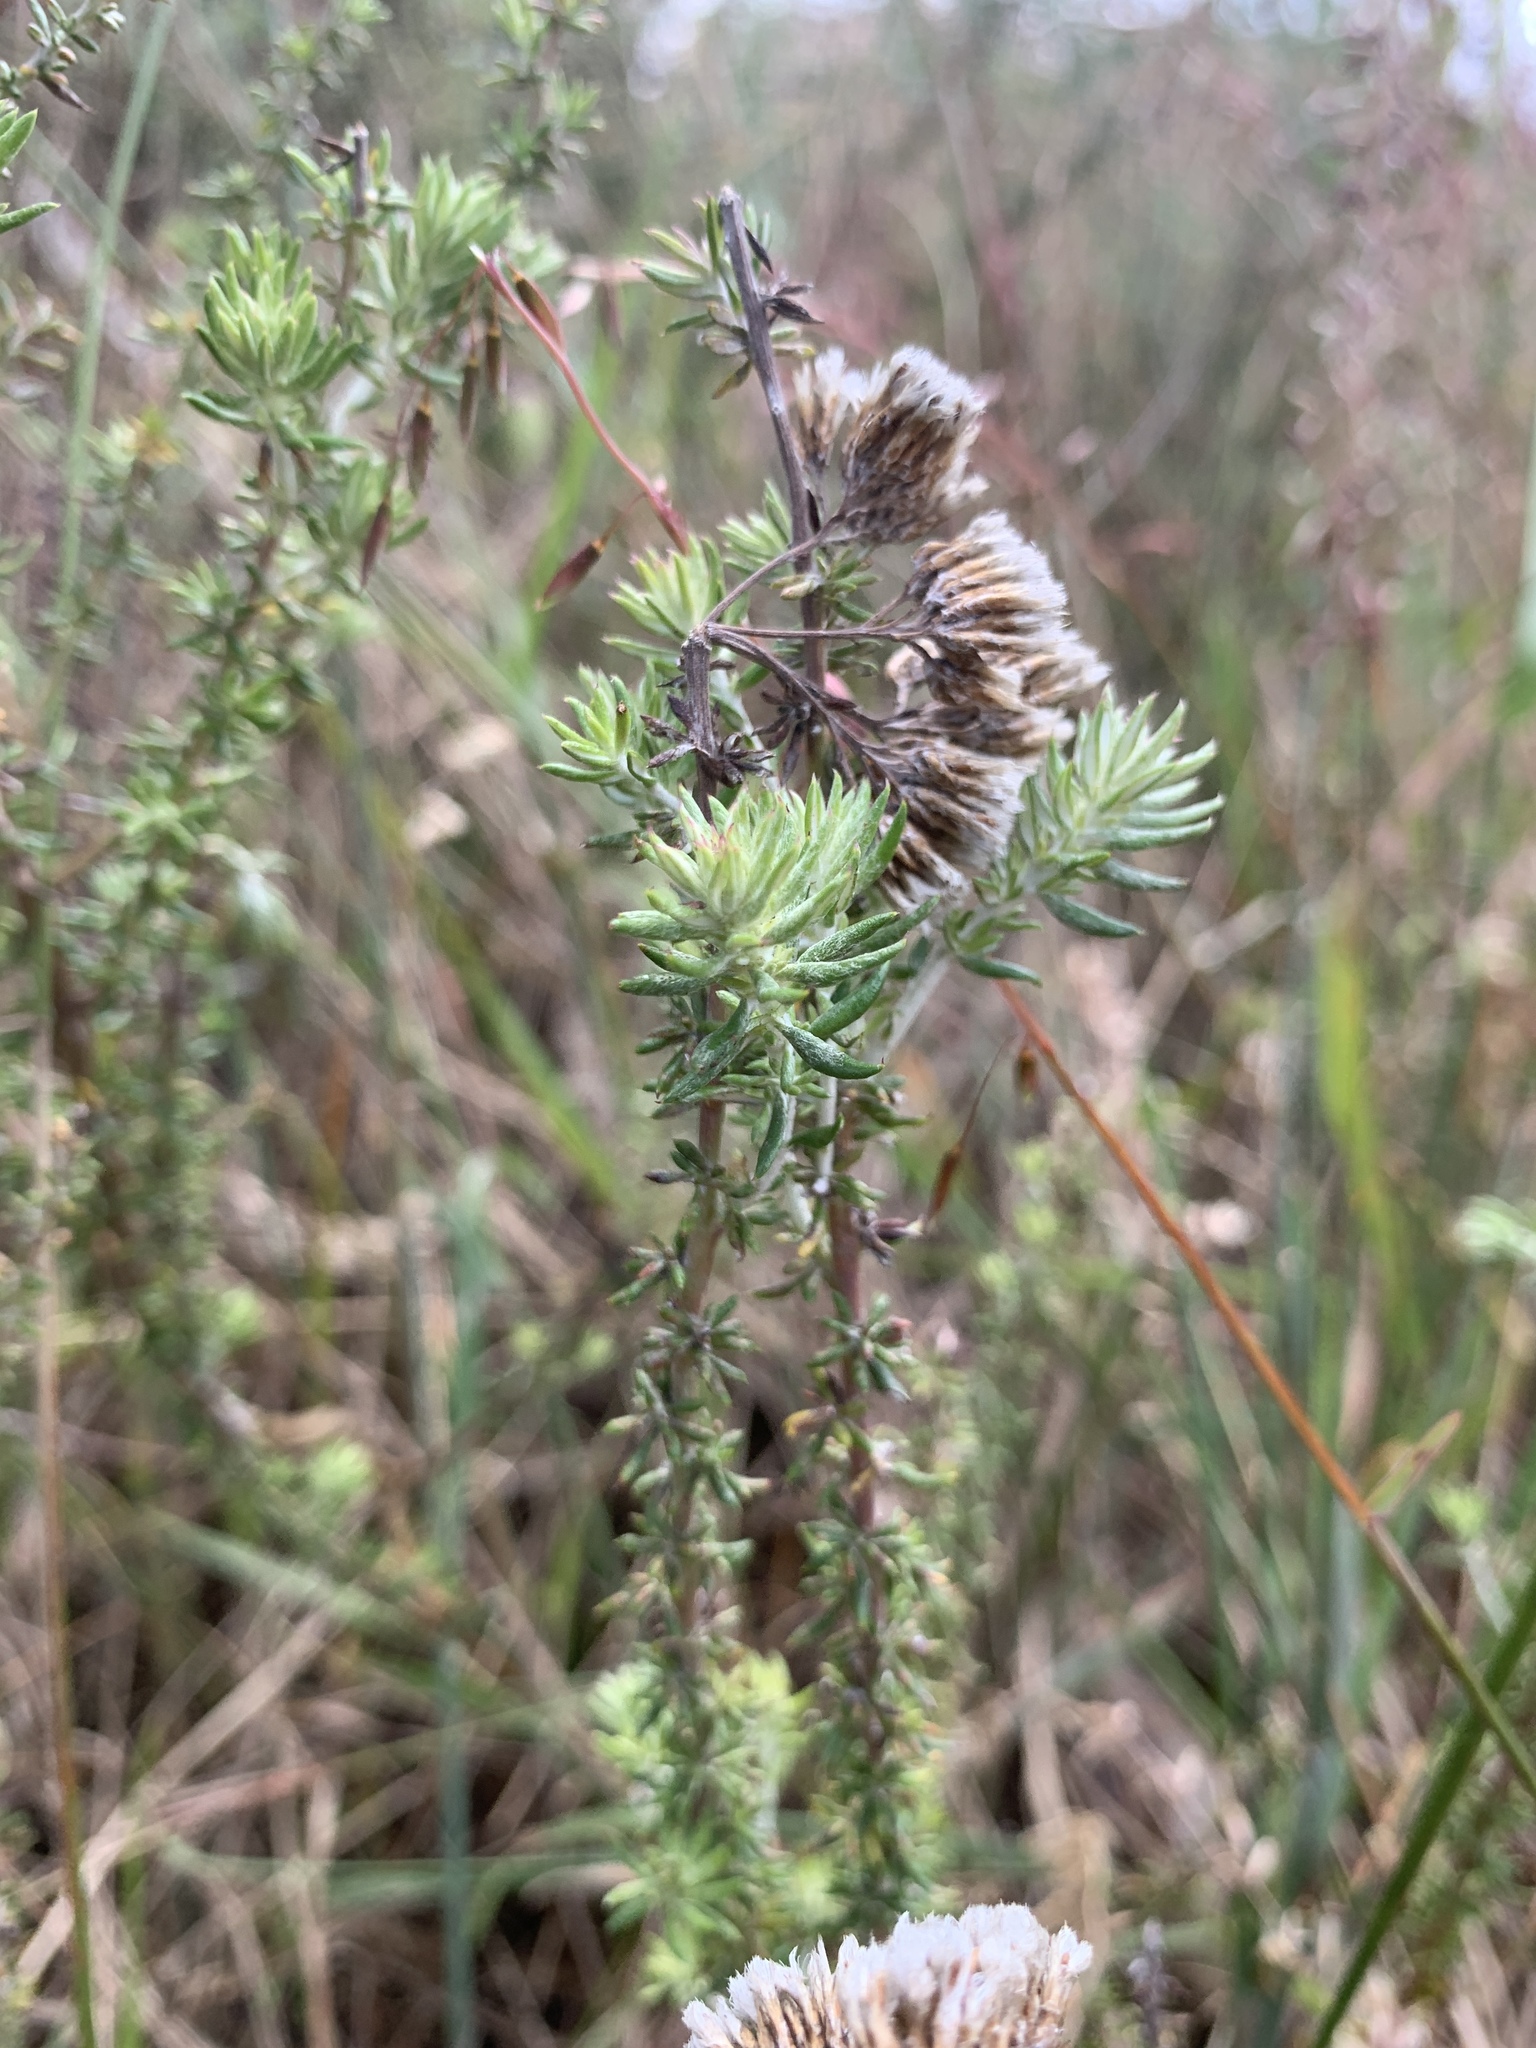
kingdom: Plantae
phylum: Tracheophyta
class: Magnoliopsida
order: Asterales
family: Asteraceae
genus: Metalasia
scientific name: Metalasia densa
